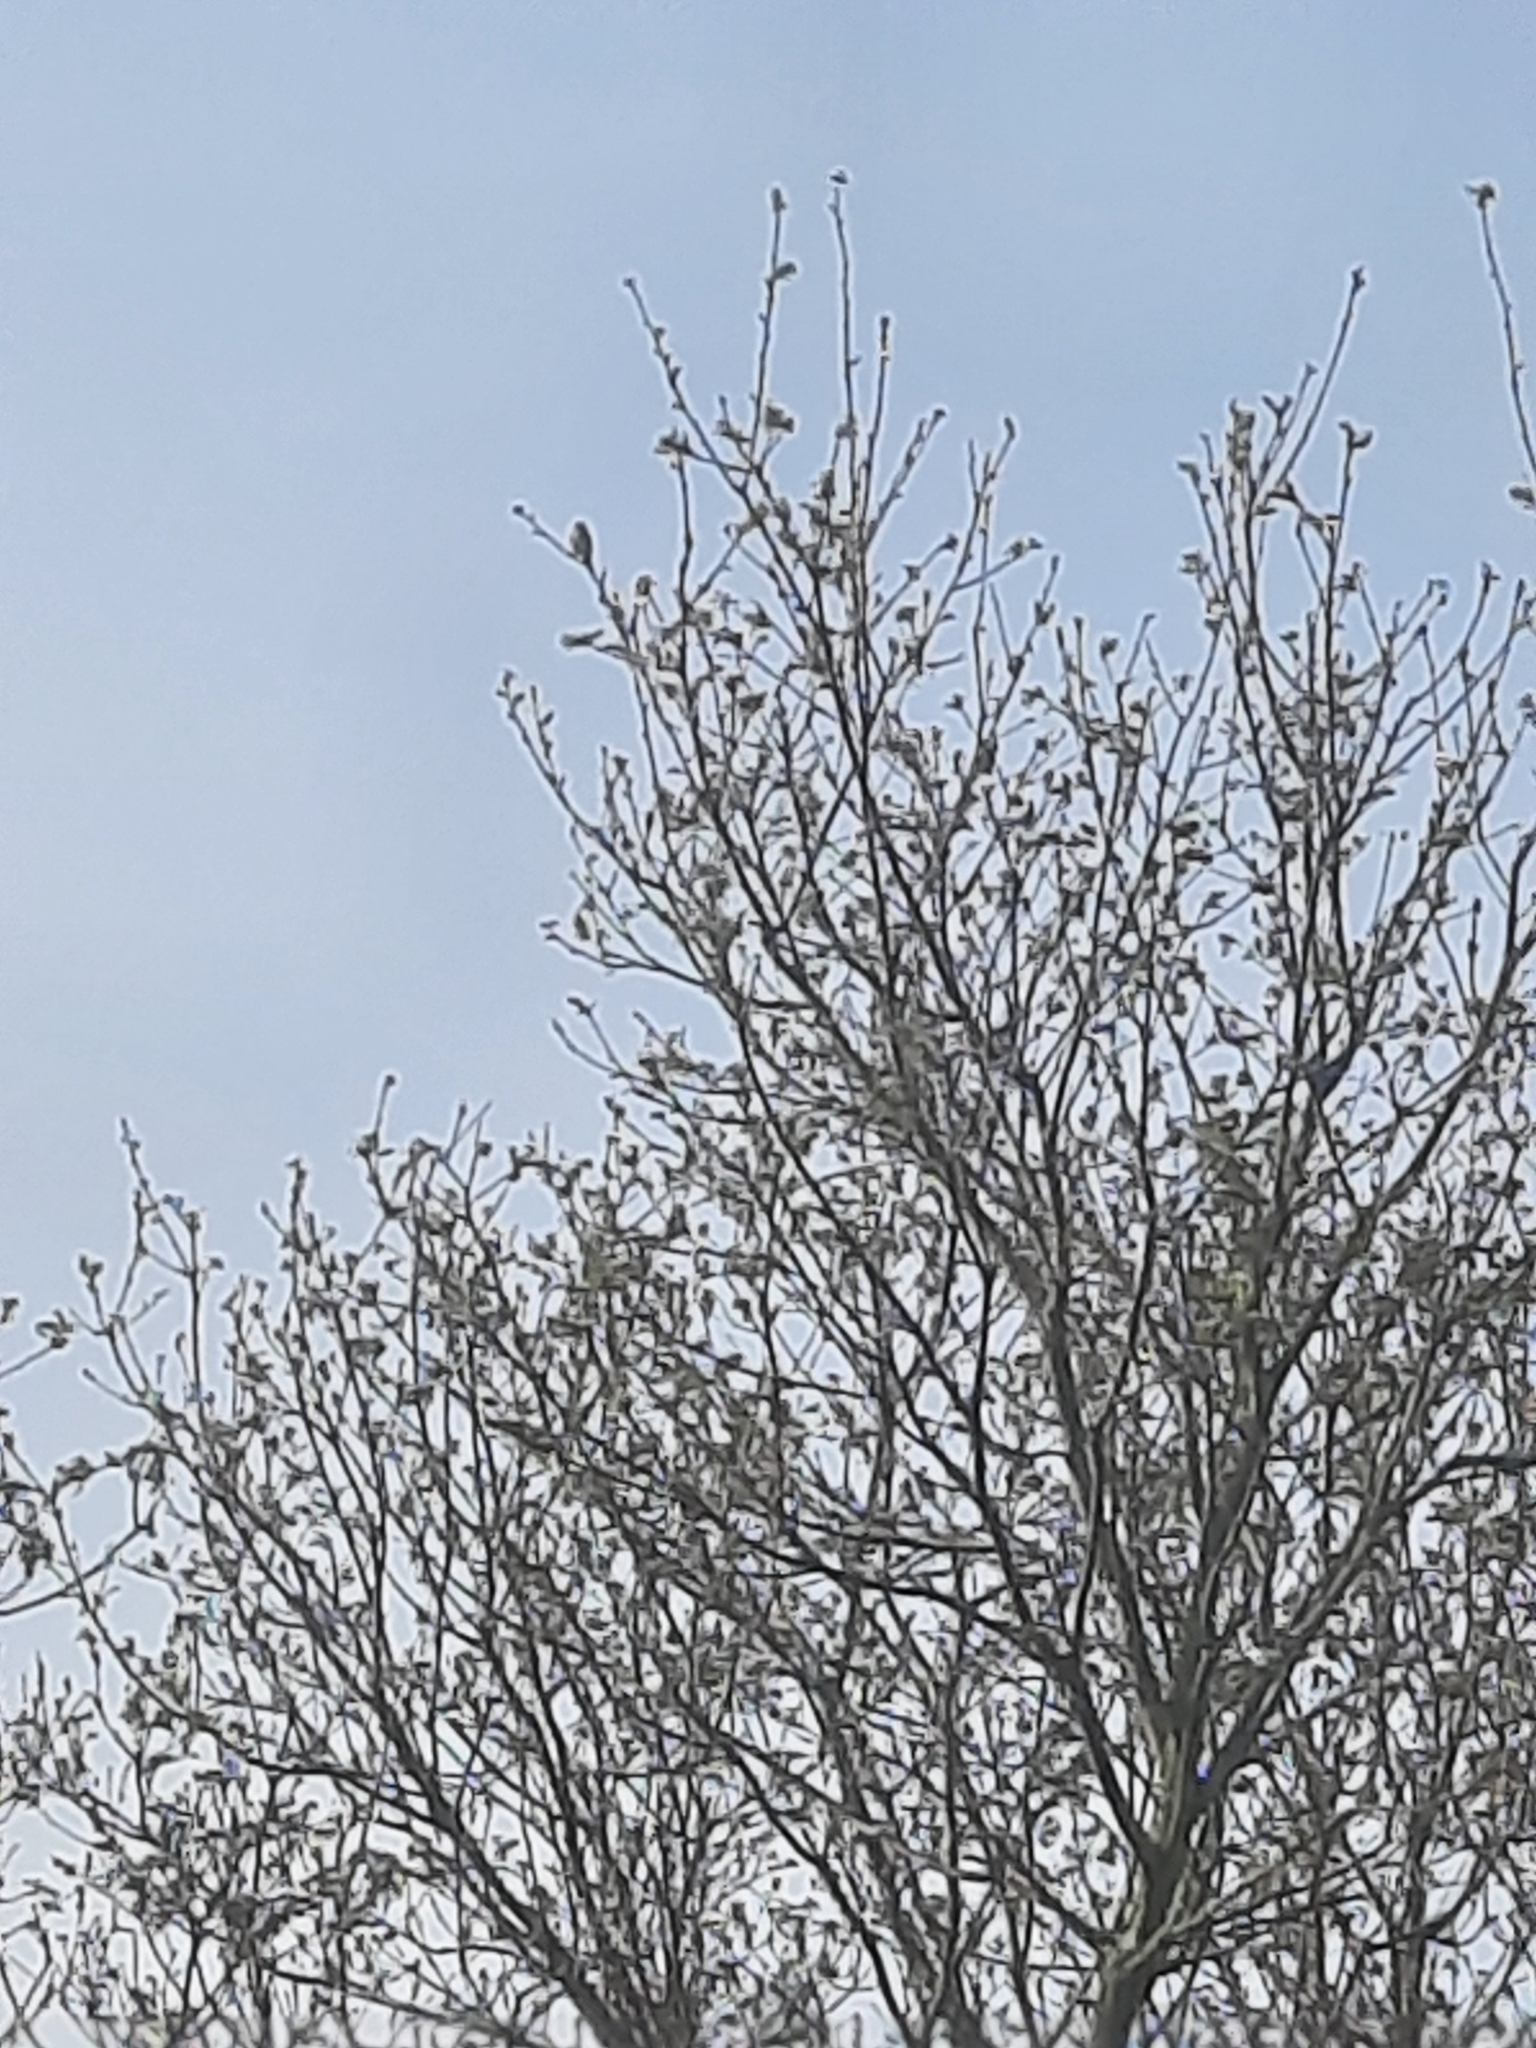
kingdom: Animalia
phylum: Chordata
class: Aves
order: Passeriformes
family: Phylloscopidae
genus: Phylloscopus
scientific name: Phylloscopus collybita
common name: Common chiffchaff
